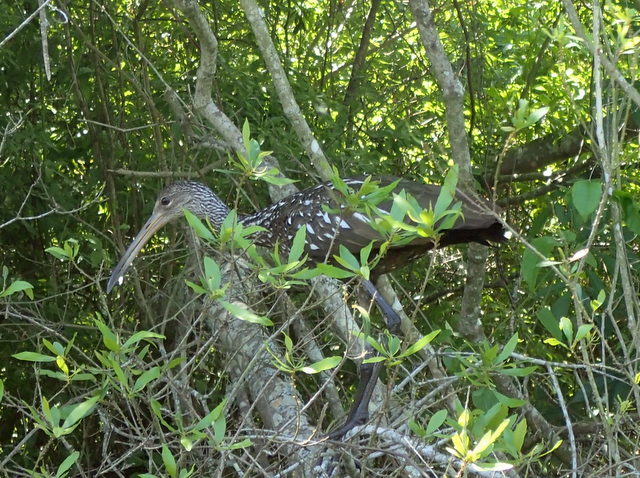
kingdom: Animalia
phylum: Chordata
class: Aves
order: Gruiformes
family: Aramidae
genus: Aramus
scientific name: Aramus guarauna
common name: Limpkin
